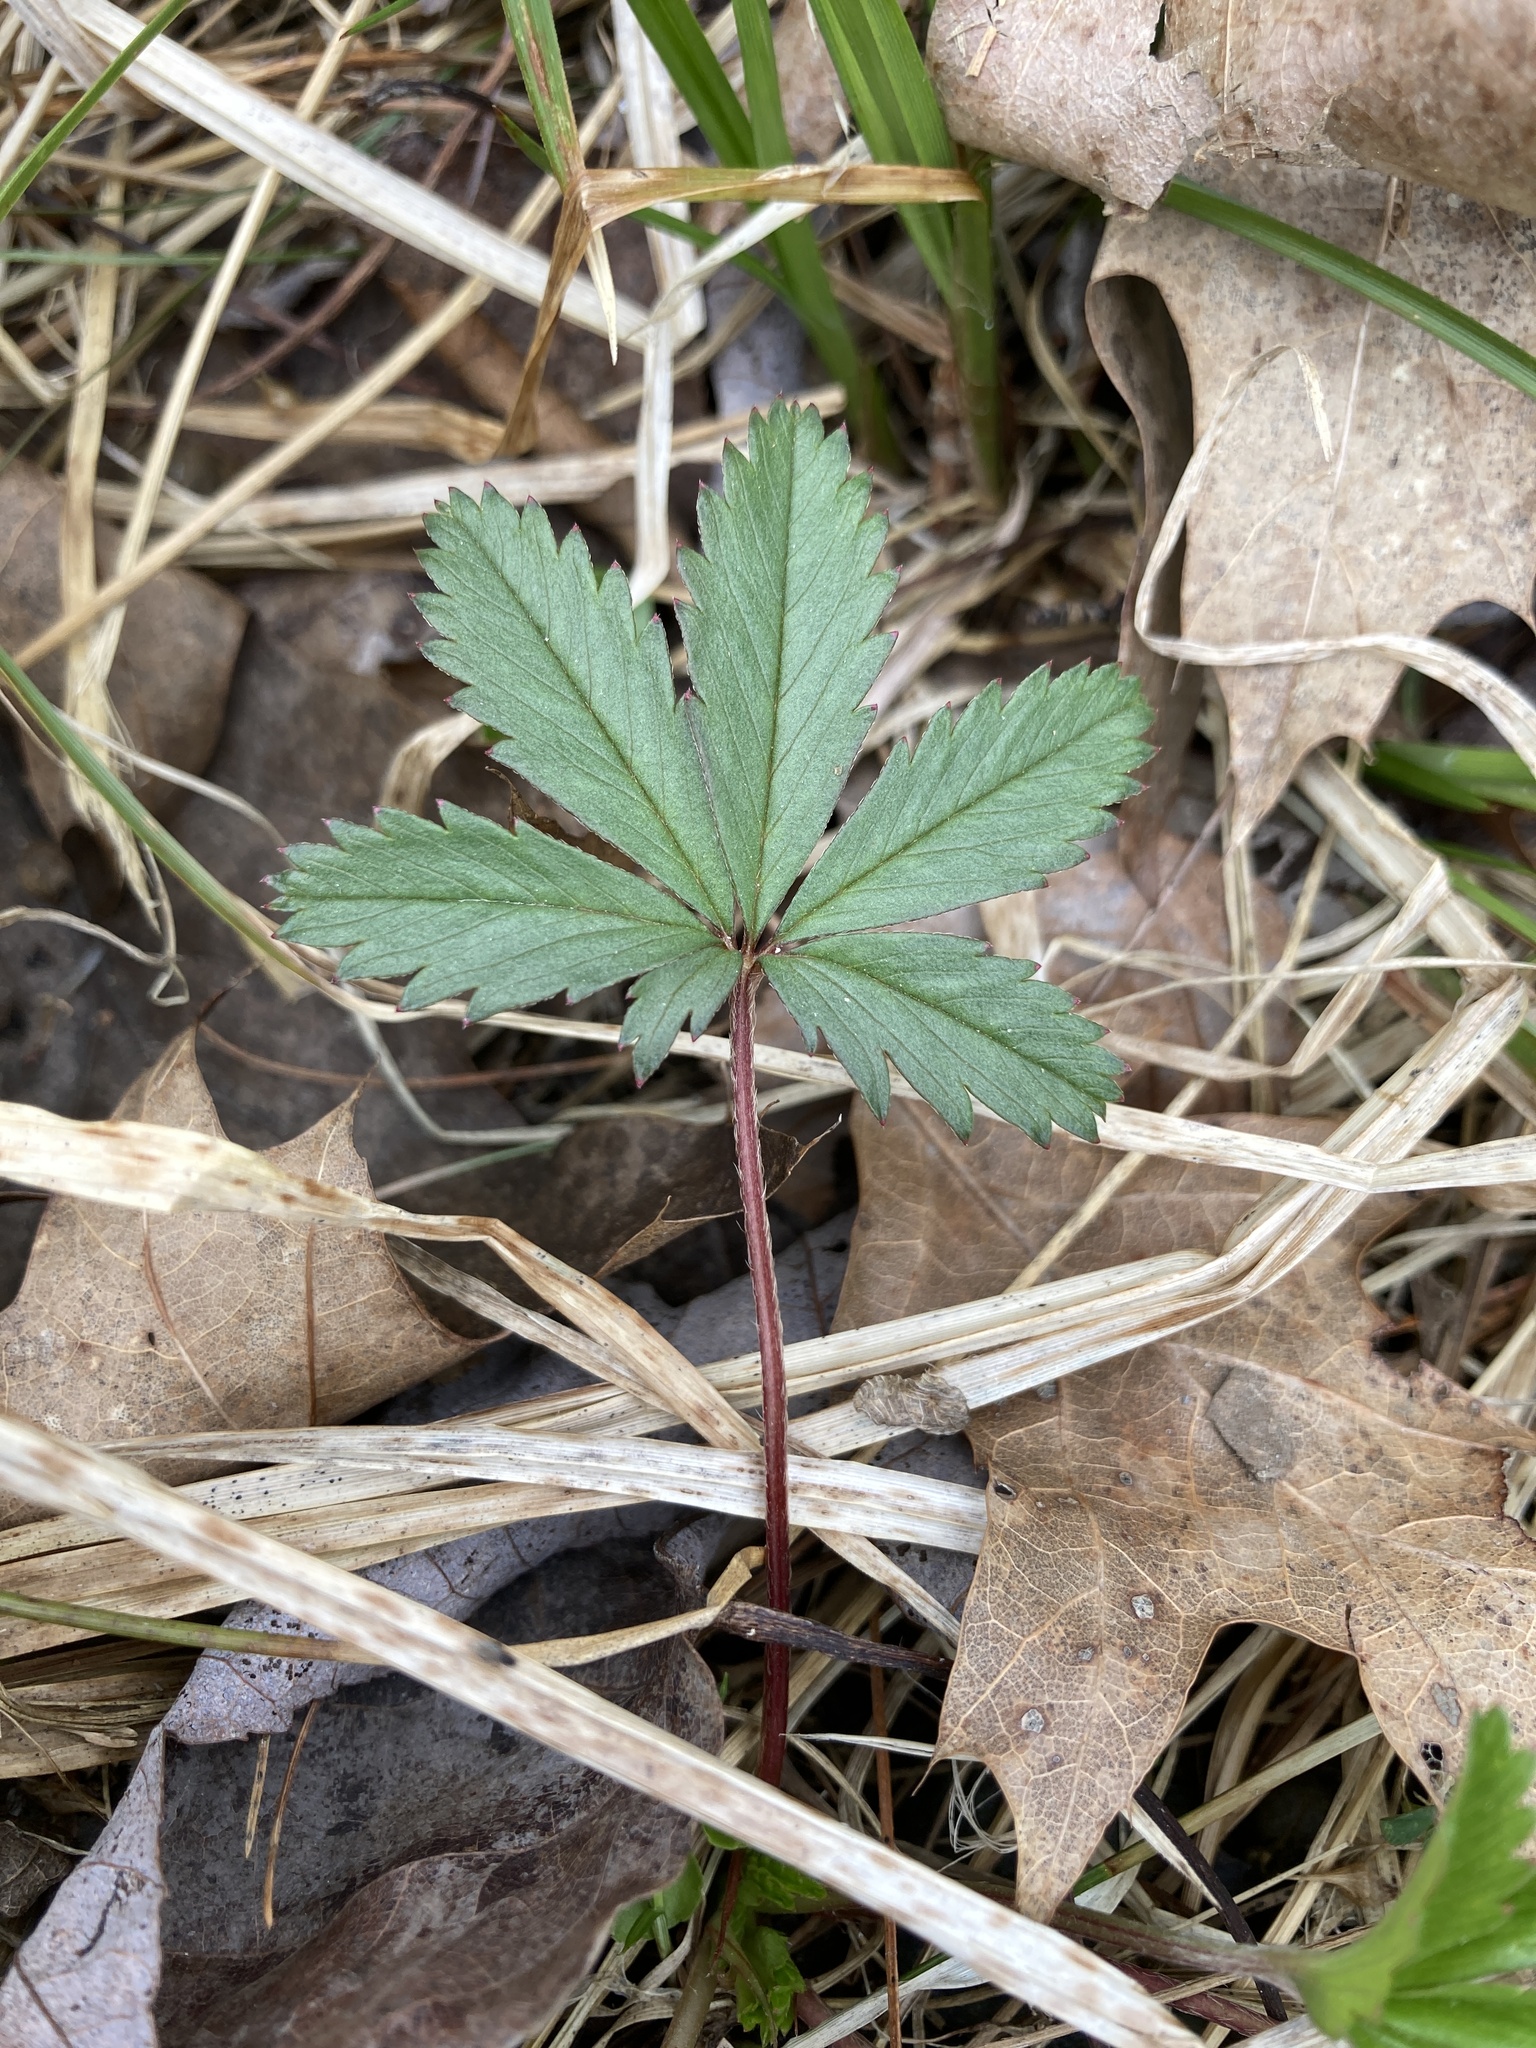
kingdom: Plantae
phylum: Tracheophyta
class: Magnoliopsida
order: Rosales
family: Rosaceae
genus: Potentilla
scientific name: Potentilla simplex
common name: Old field cinquefoil
